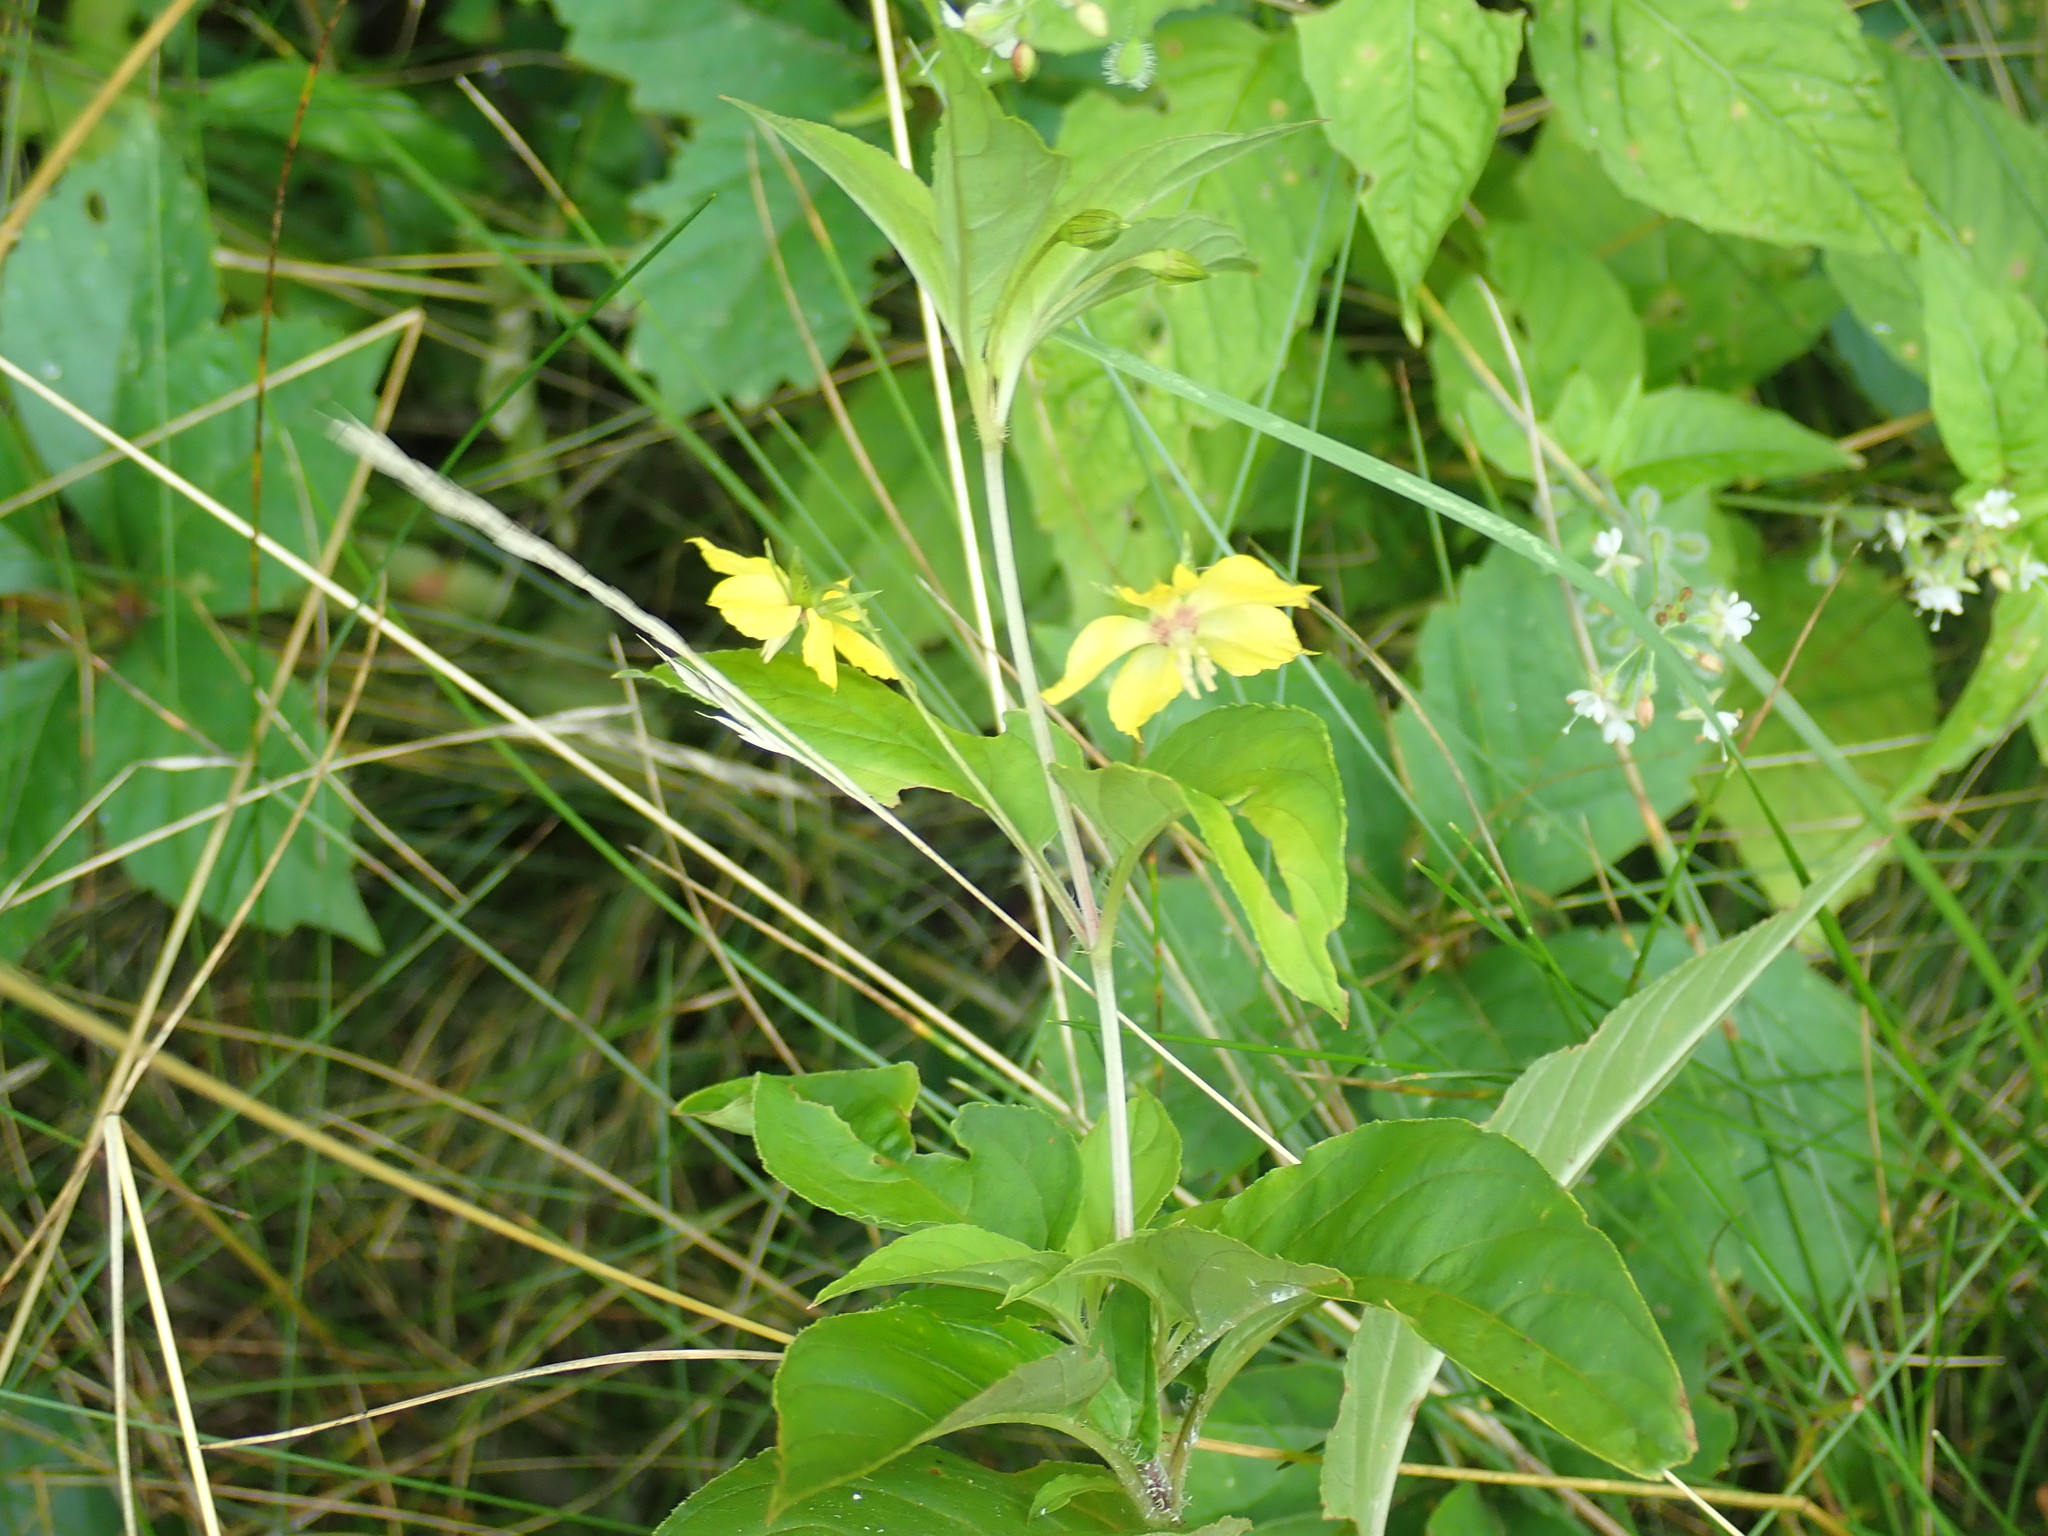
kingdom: Plantae
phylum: Tracheophyta
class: Magnoliopsida
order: Ericales
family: Primulaceae
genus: Lysimachia
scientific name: Lysimachia ciliata
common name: Fringed loosestrife
